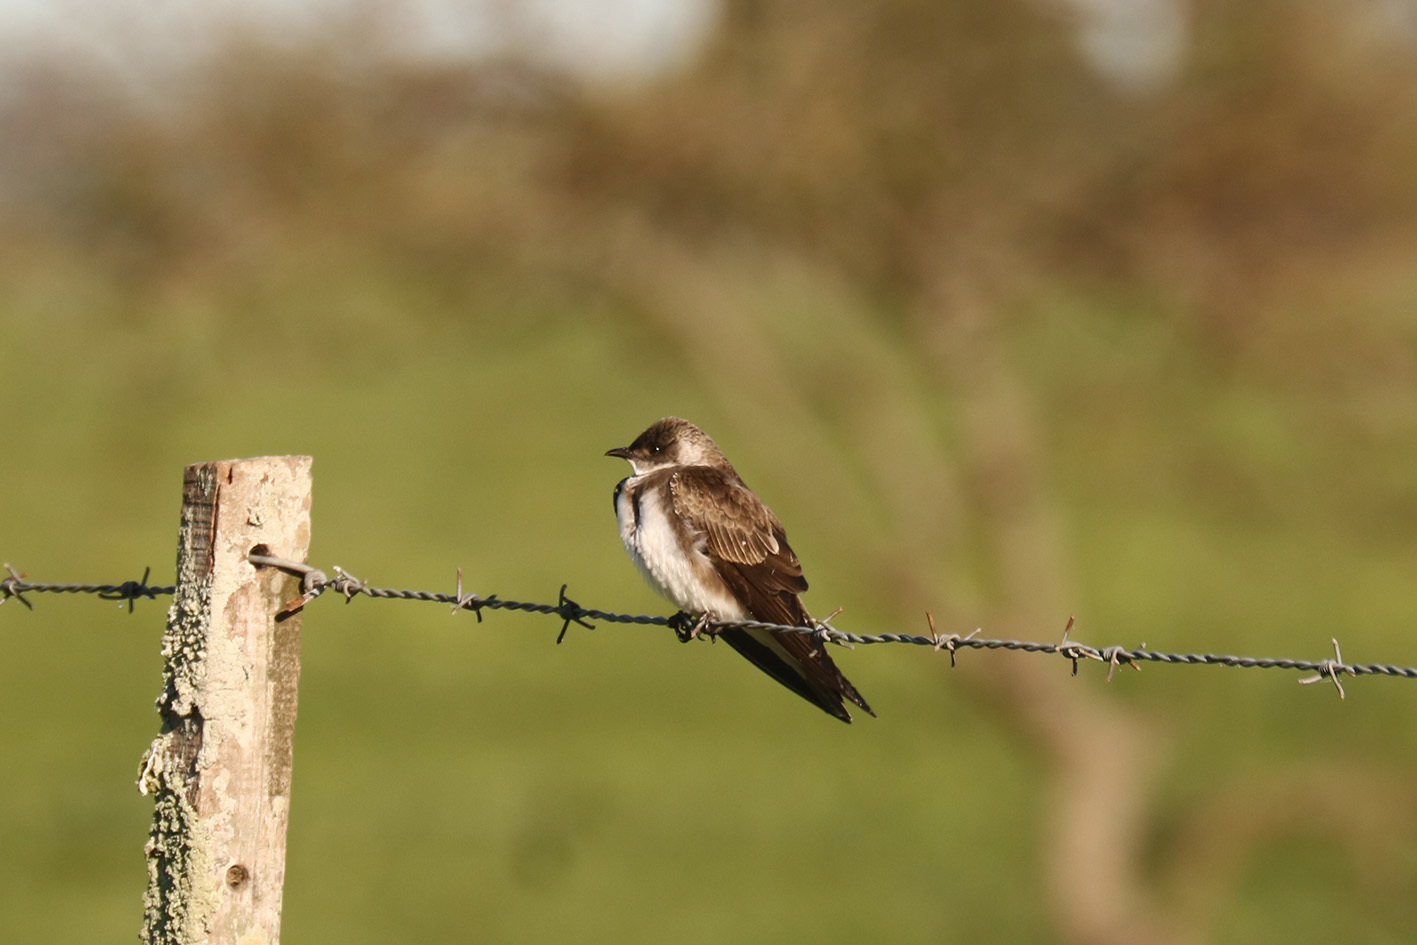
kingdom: Animalia
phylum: Chordata
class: Aves
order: Passeriformes
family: Hirundinidae
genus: Progne
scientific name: Progne tapera
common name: Brown-chested martin
